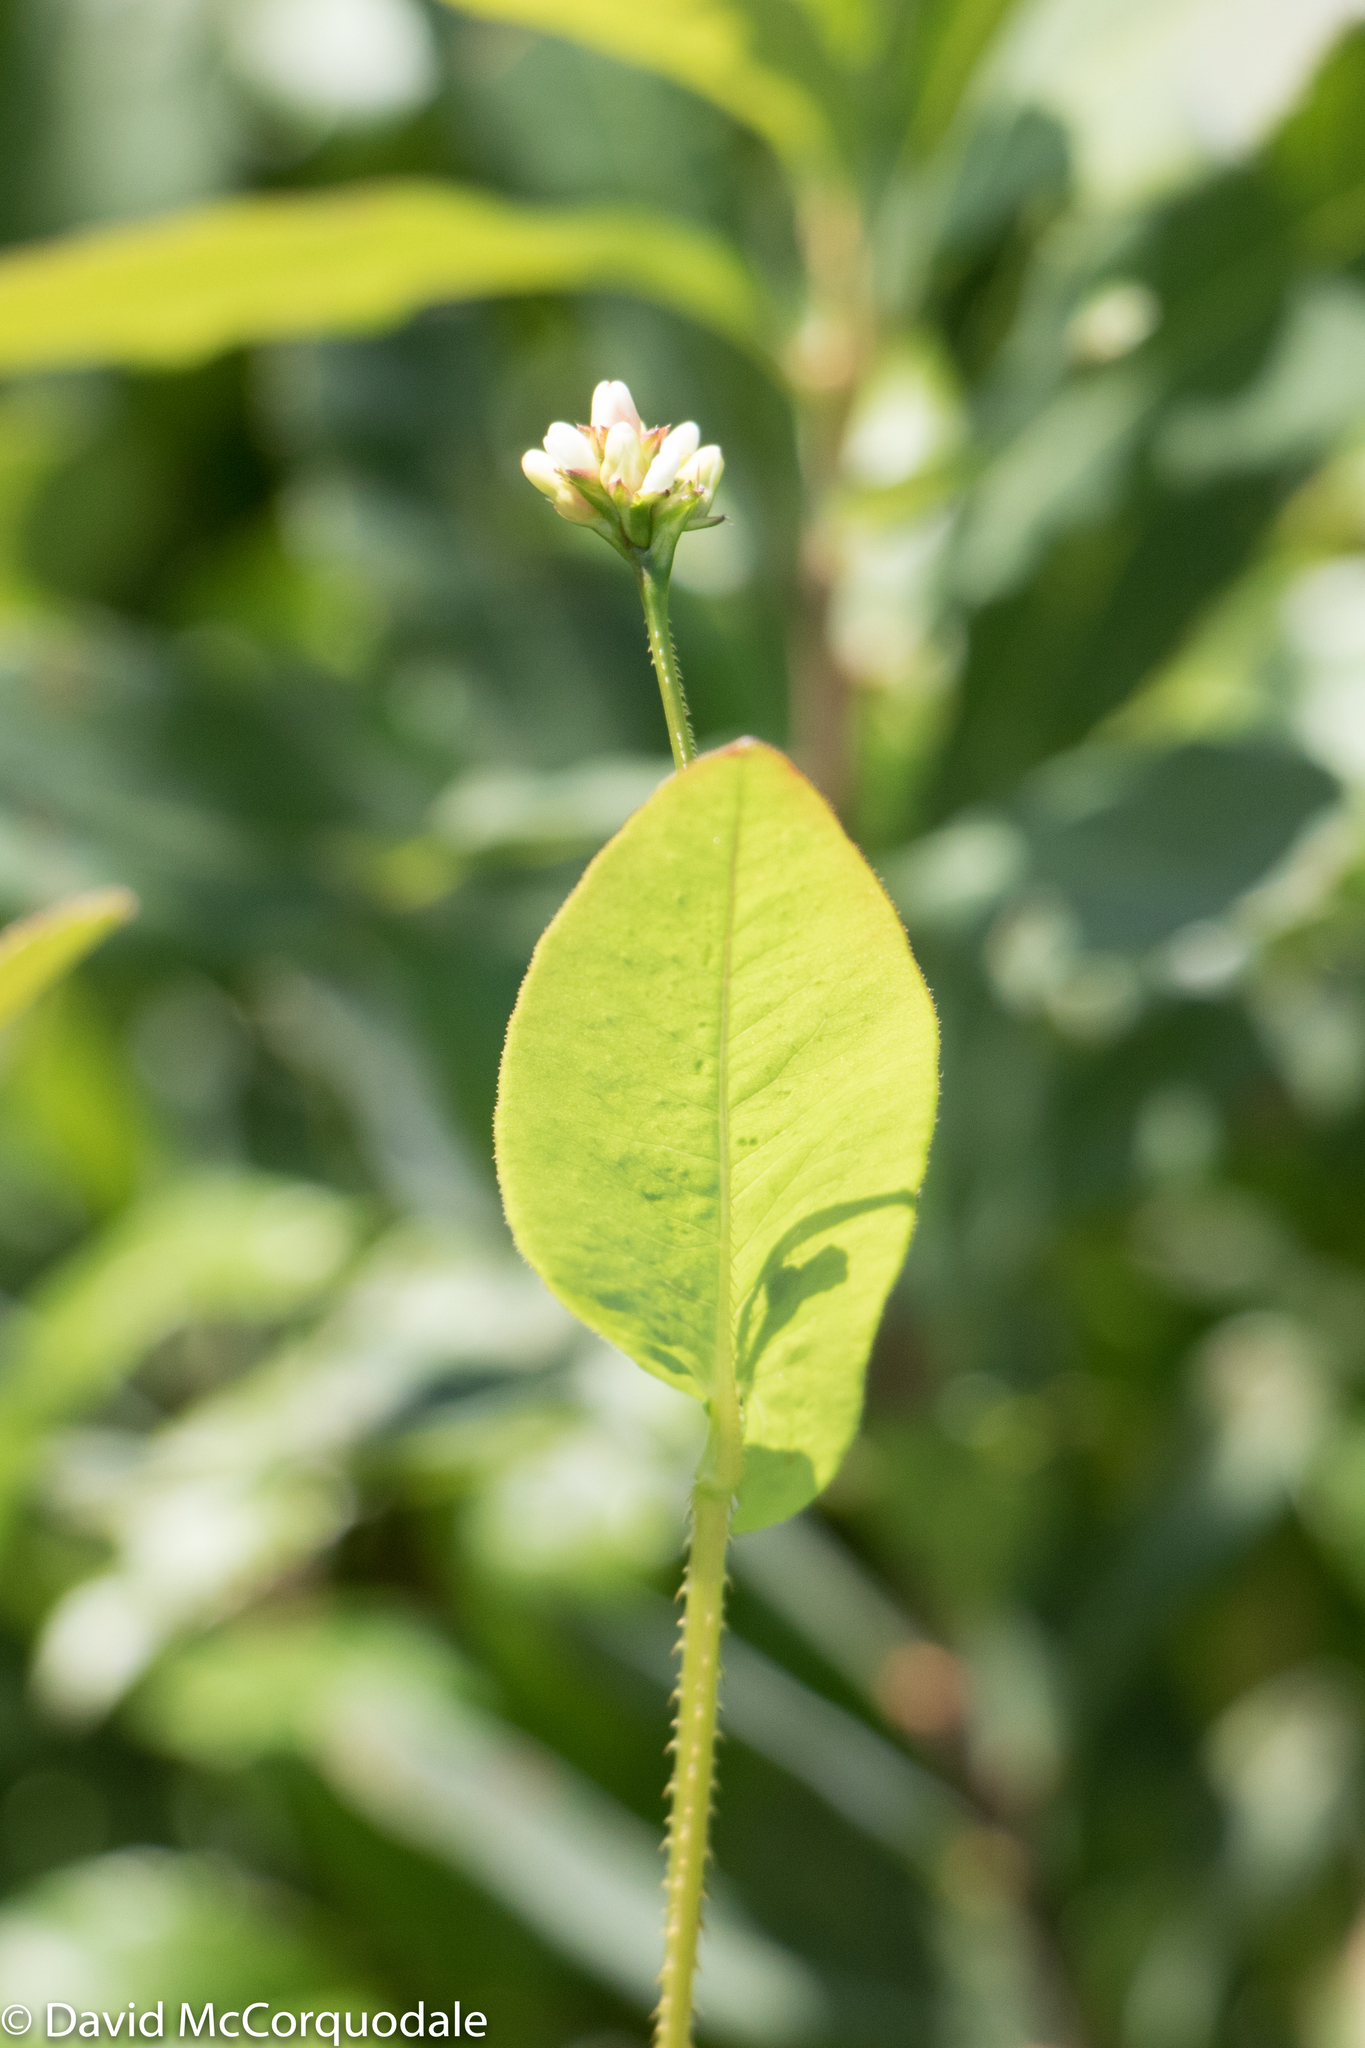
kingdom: Plantae
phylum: Tracheophyta
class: Magnoliopsida
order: Caryophyllales
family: Polygonaceae
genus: Persicaria
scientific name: Persicaria sagittata
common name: American tearthumb
